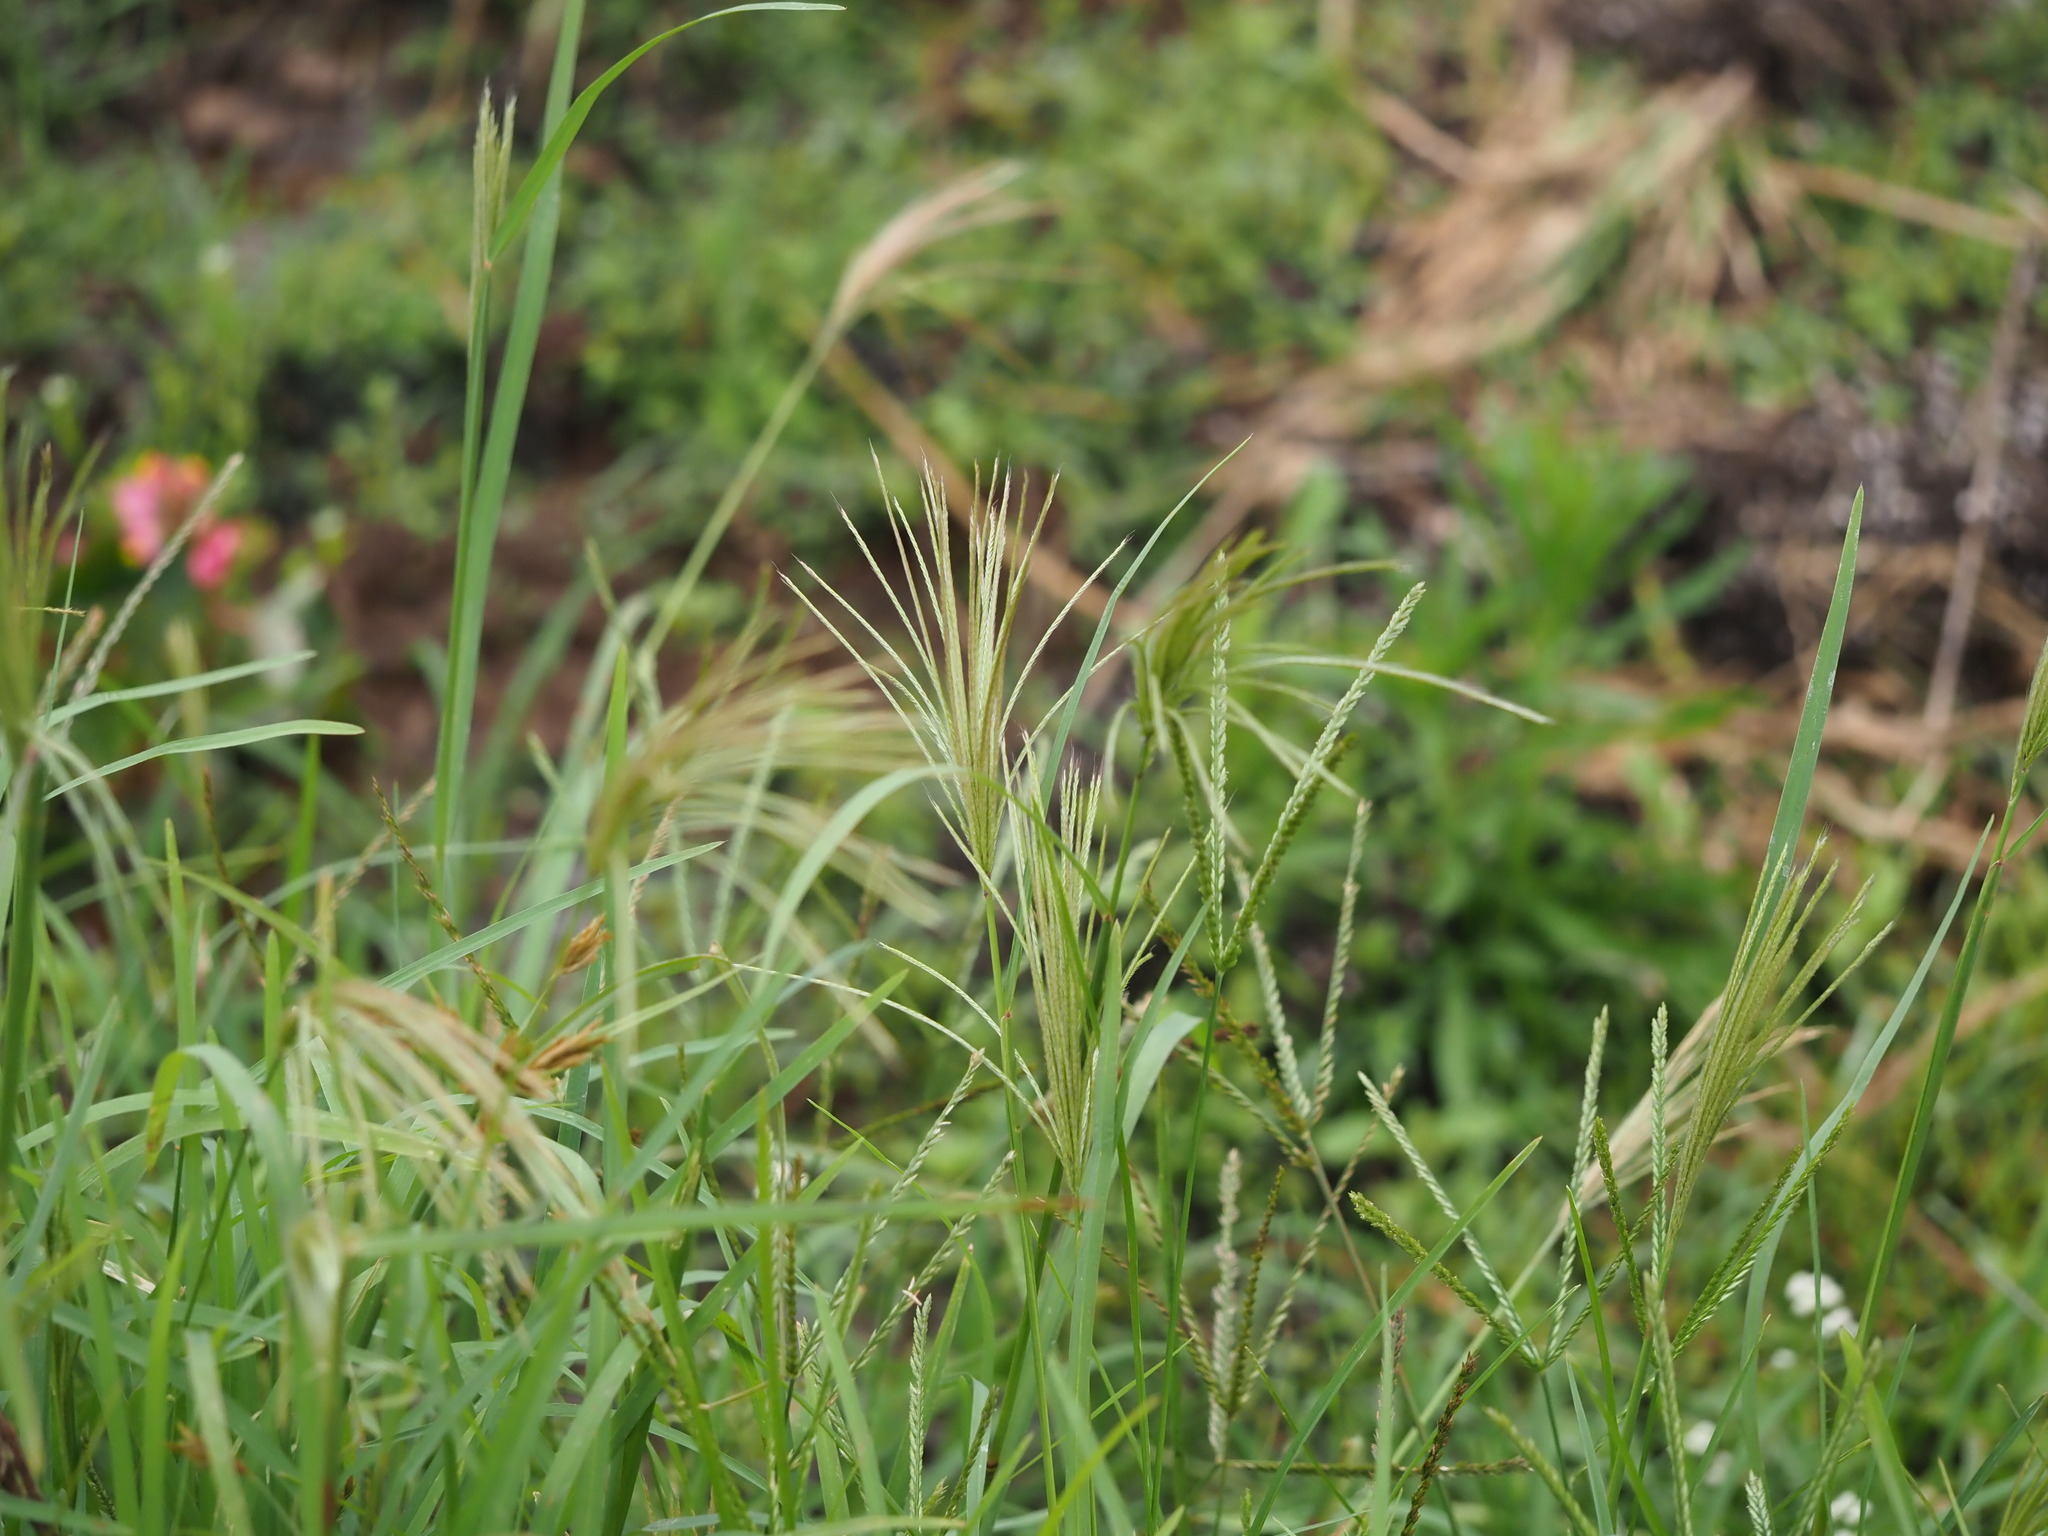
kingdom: Plantae
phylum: Tracheophyta
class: Liliopsida
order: Poales
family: Poaceae
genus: Chloris
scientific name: Chloris radiata
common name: Radiate fingergrass
